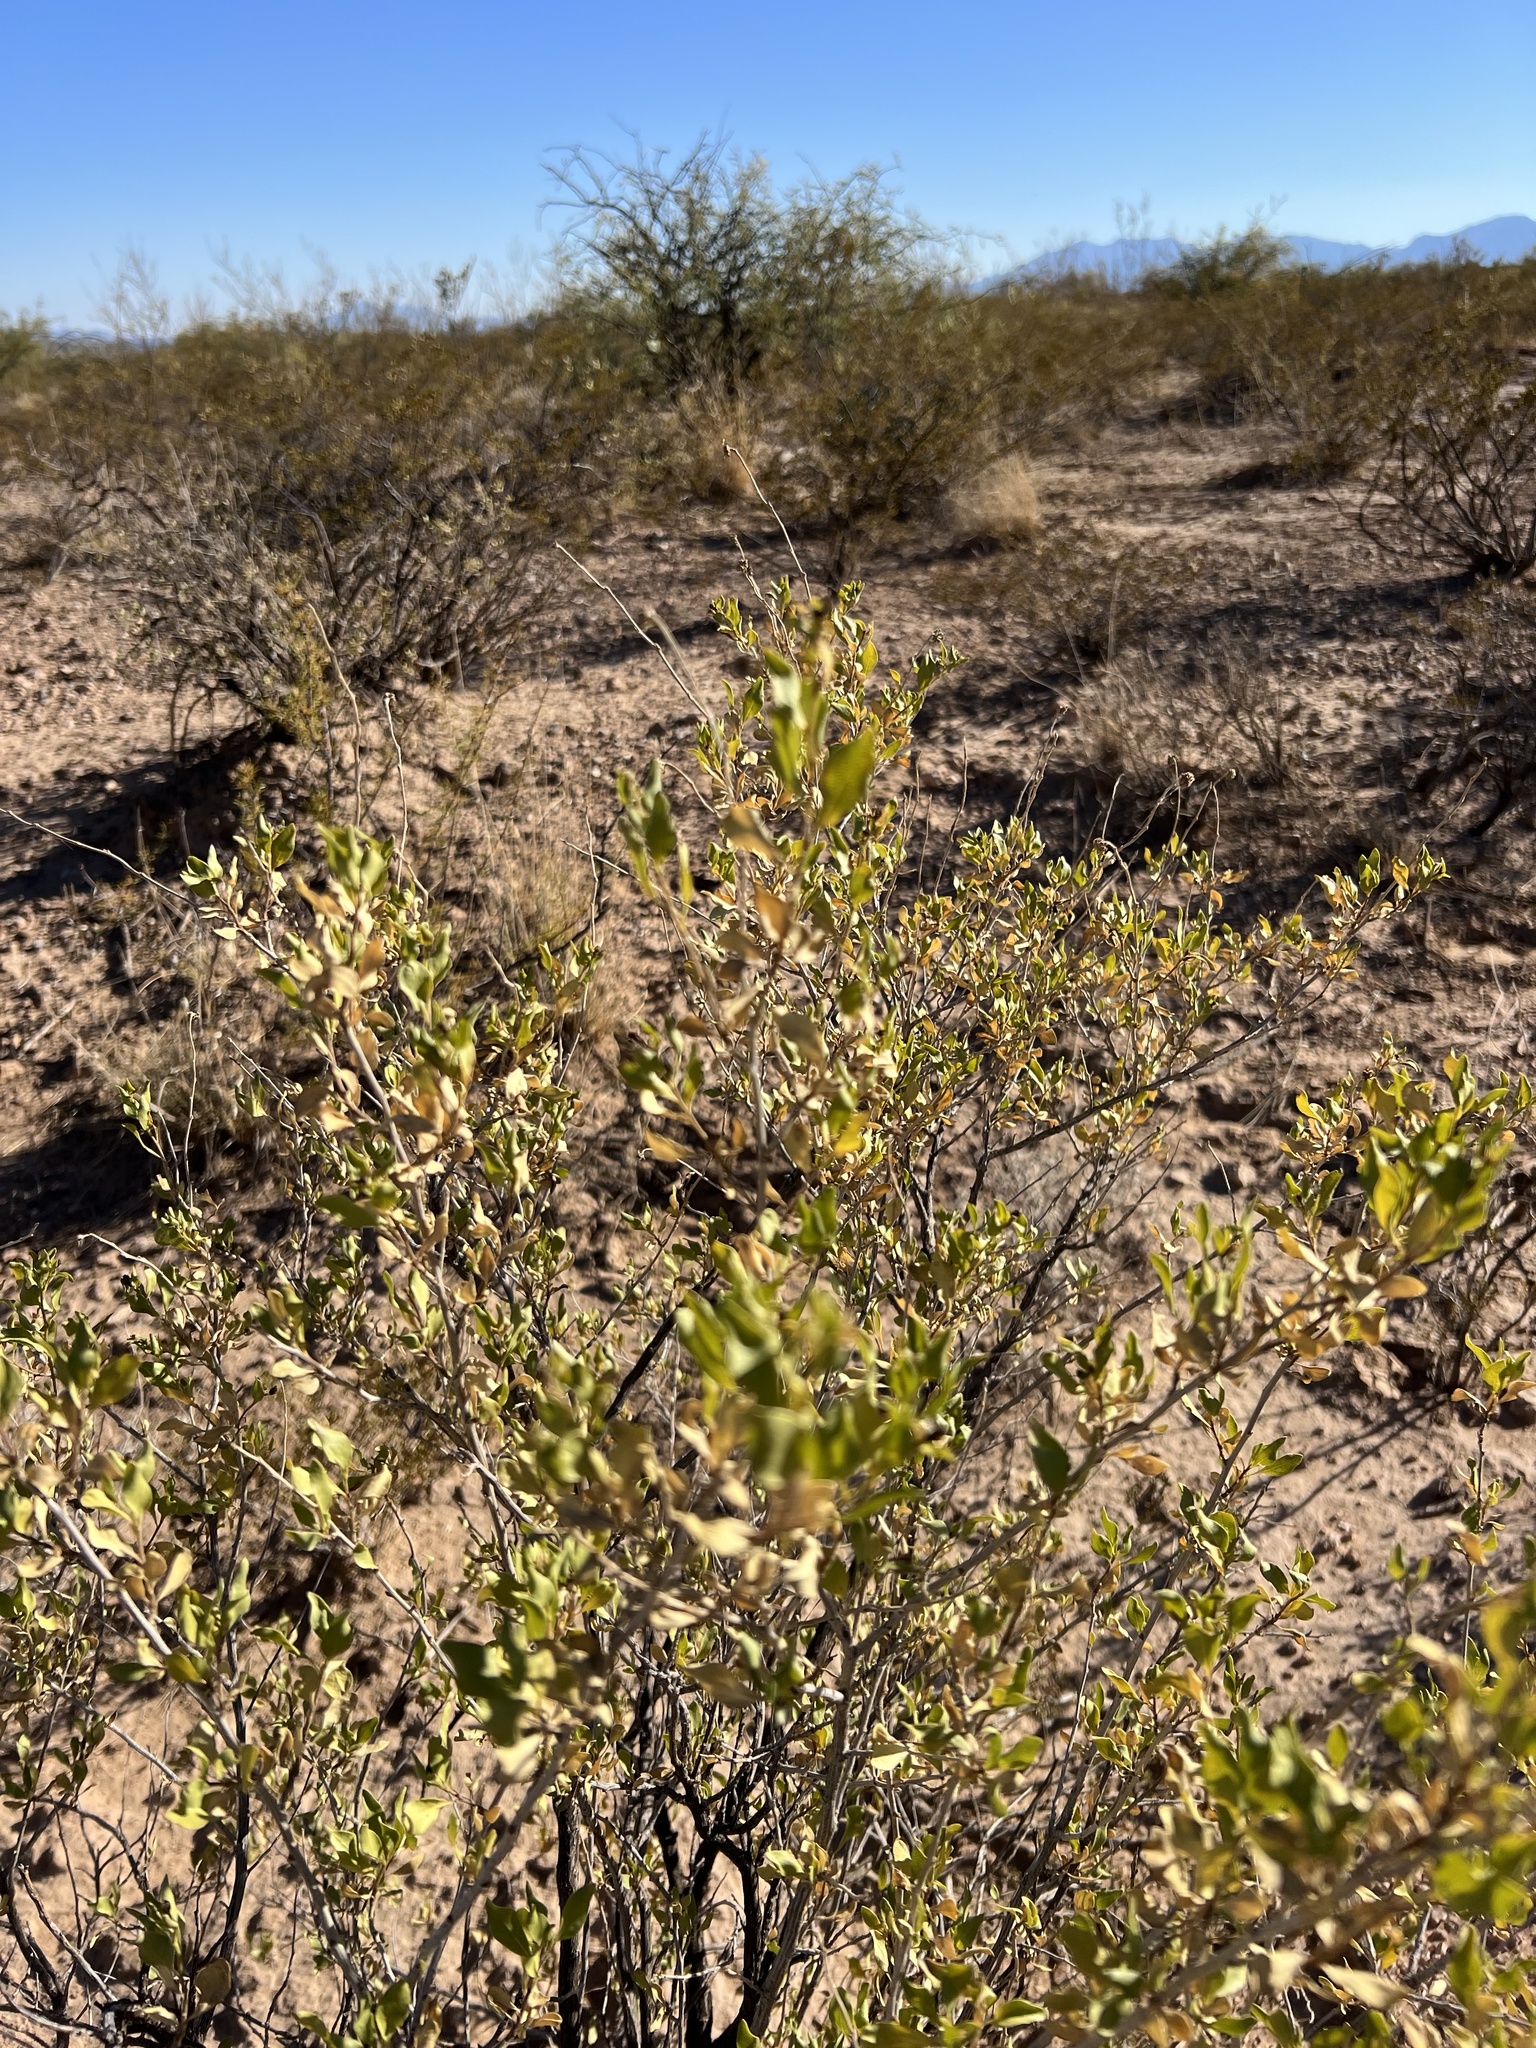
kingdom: Plantae
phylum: Tracheophyta
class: Magnoliopsida
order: Asterales
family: Asteraceae
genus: Flourensia
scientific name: Flourensia cernua
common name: Varnishbush
